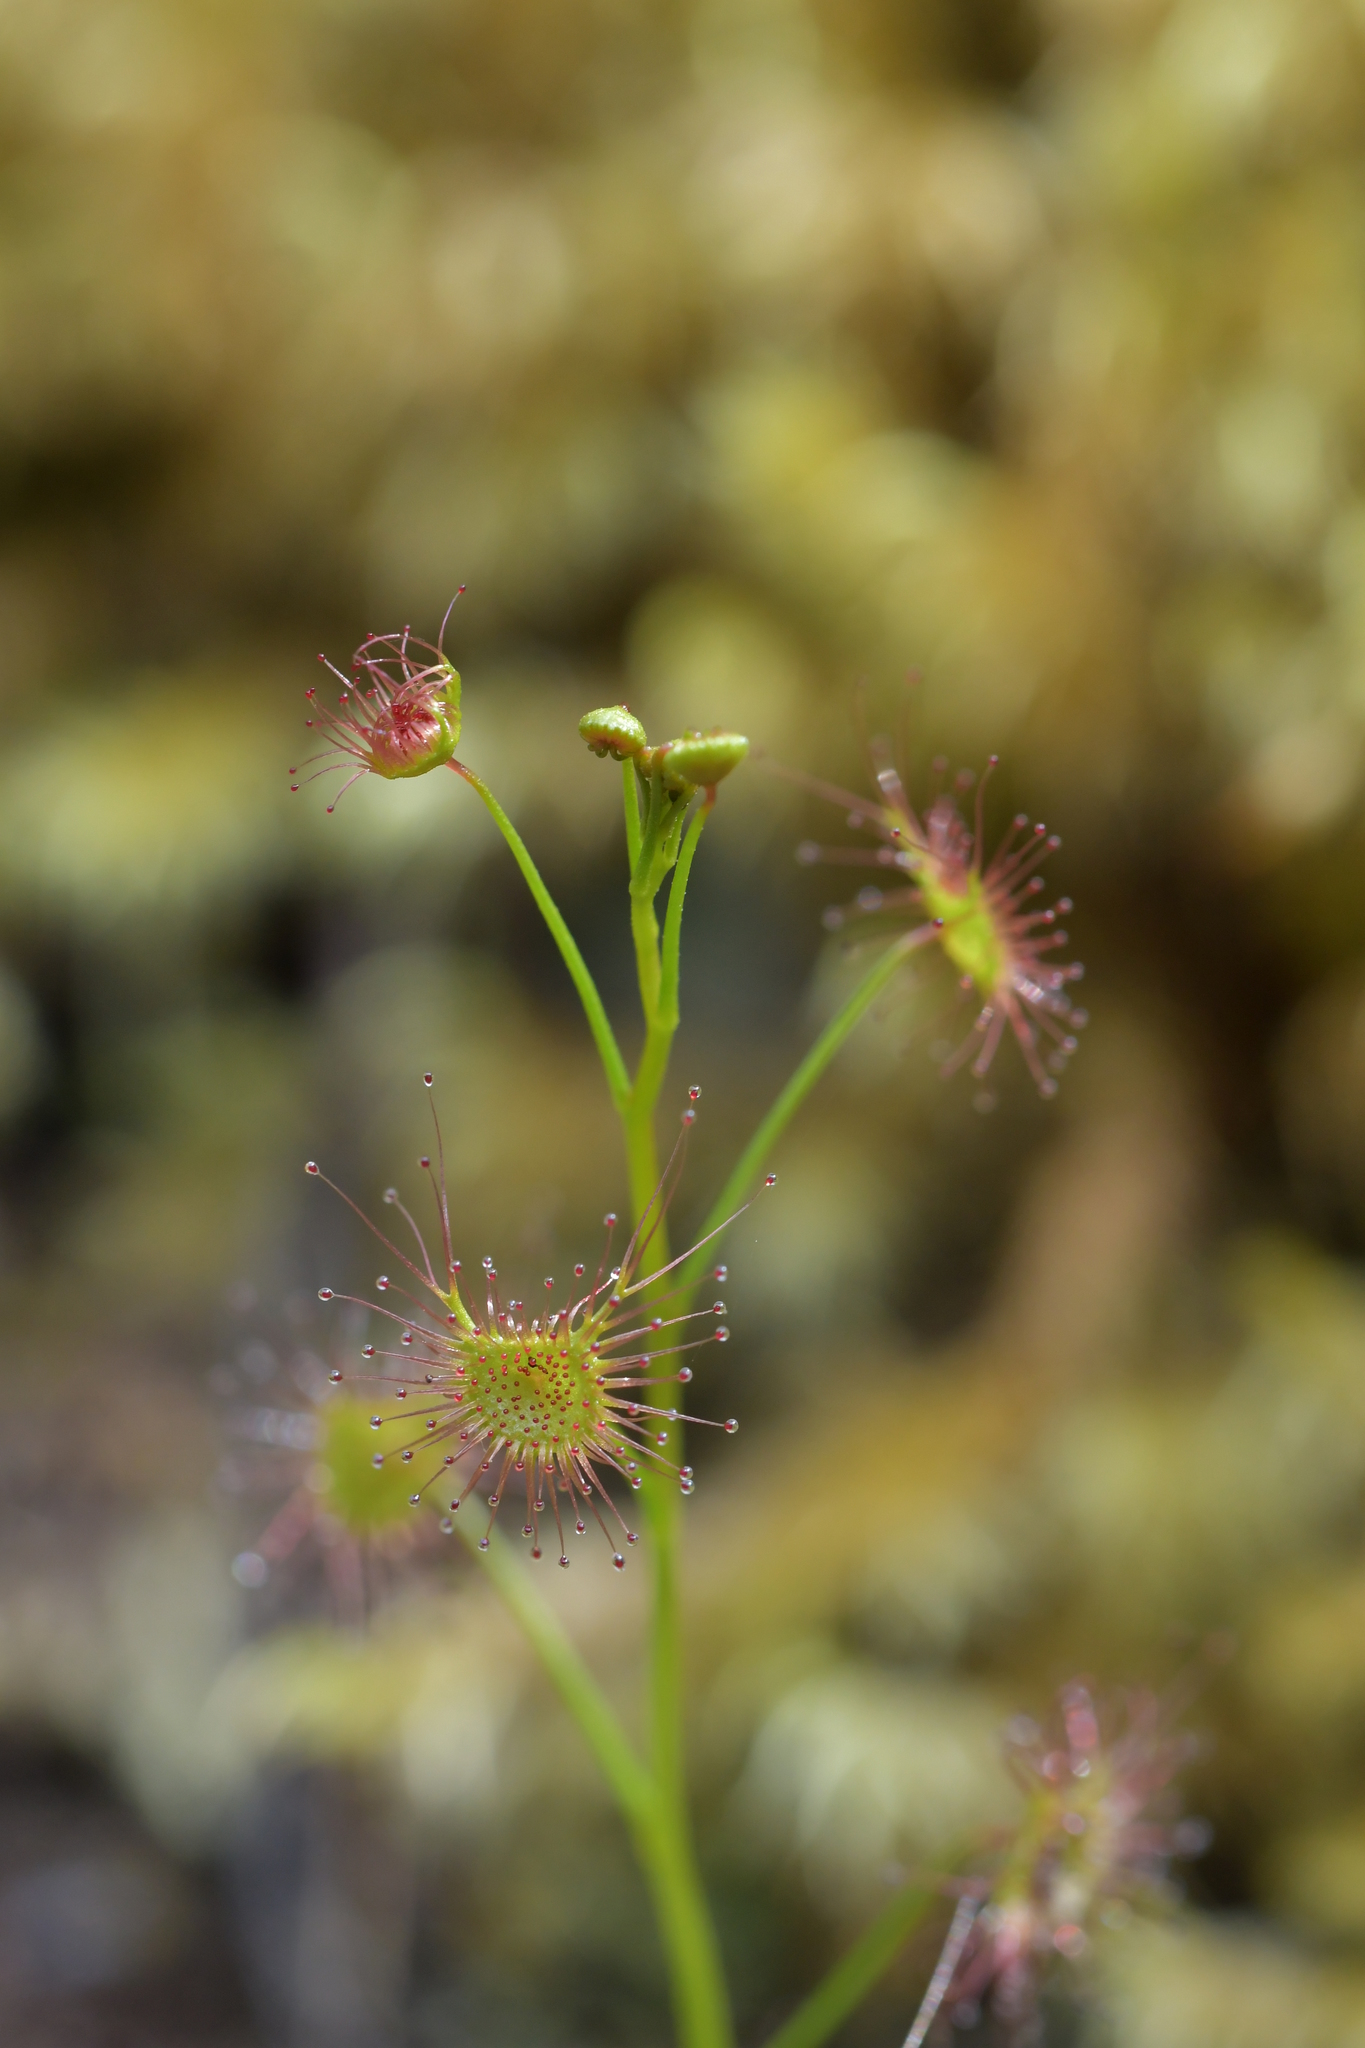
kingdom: Plantae
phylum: Tracheophyta
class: Magnoliopsida
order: Caryophyllales
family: Droseraceae
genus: Drosera
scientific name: Drosera peltata
